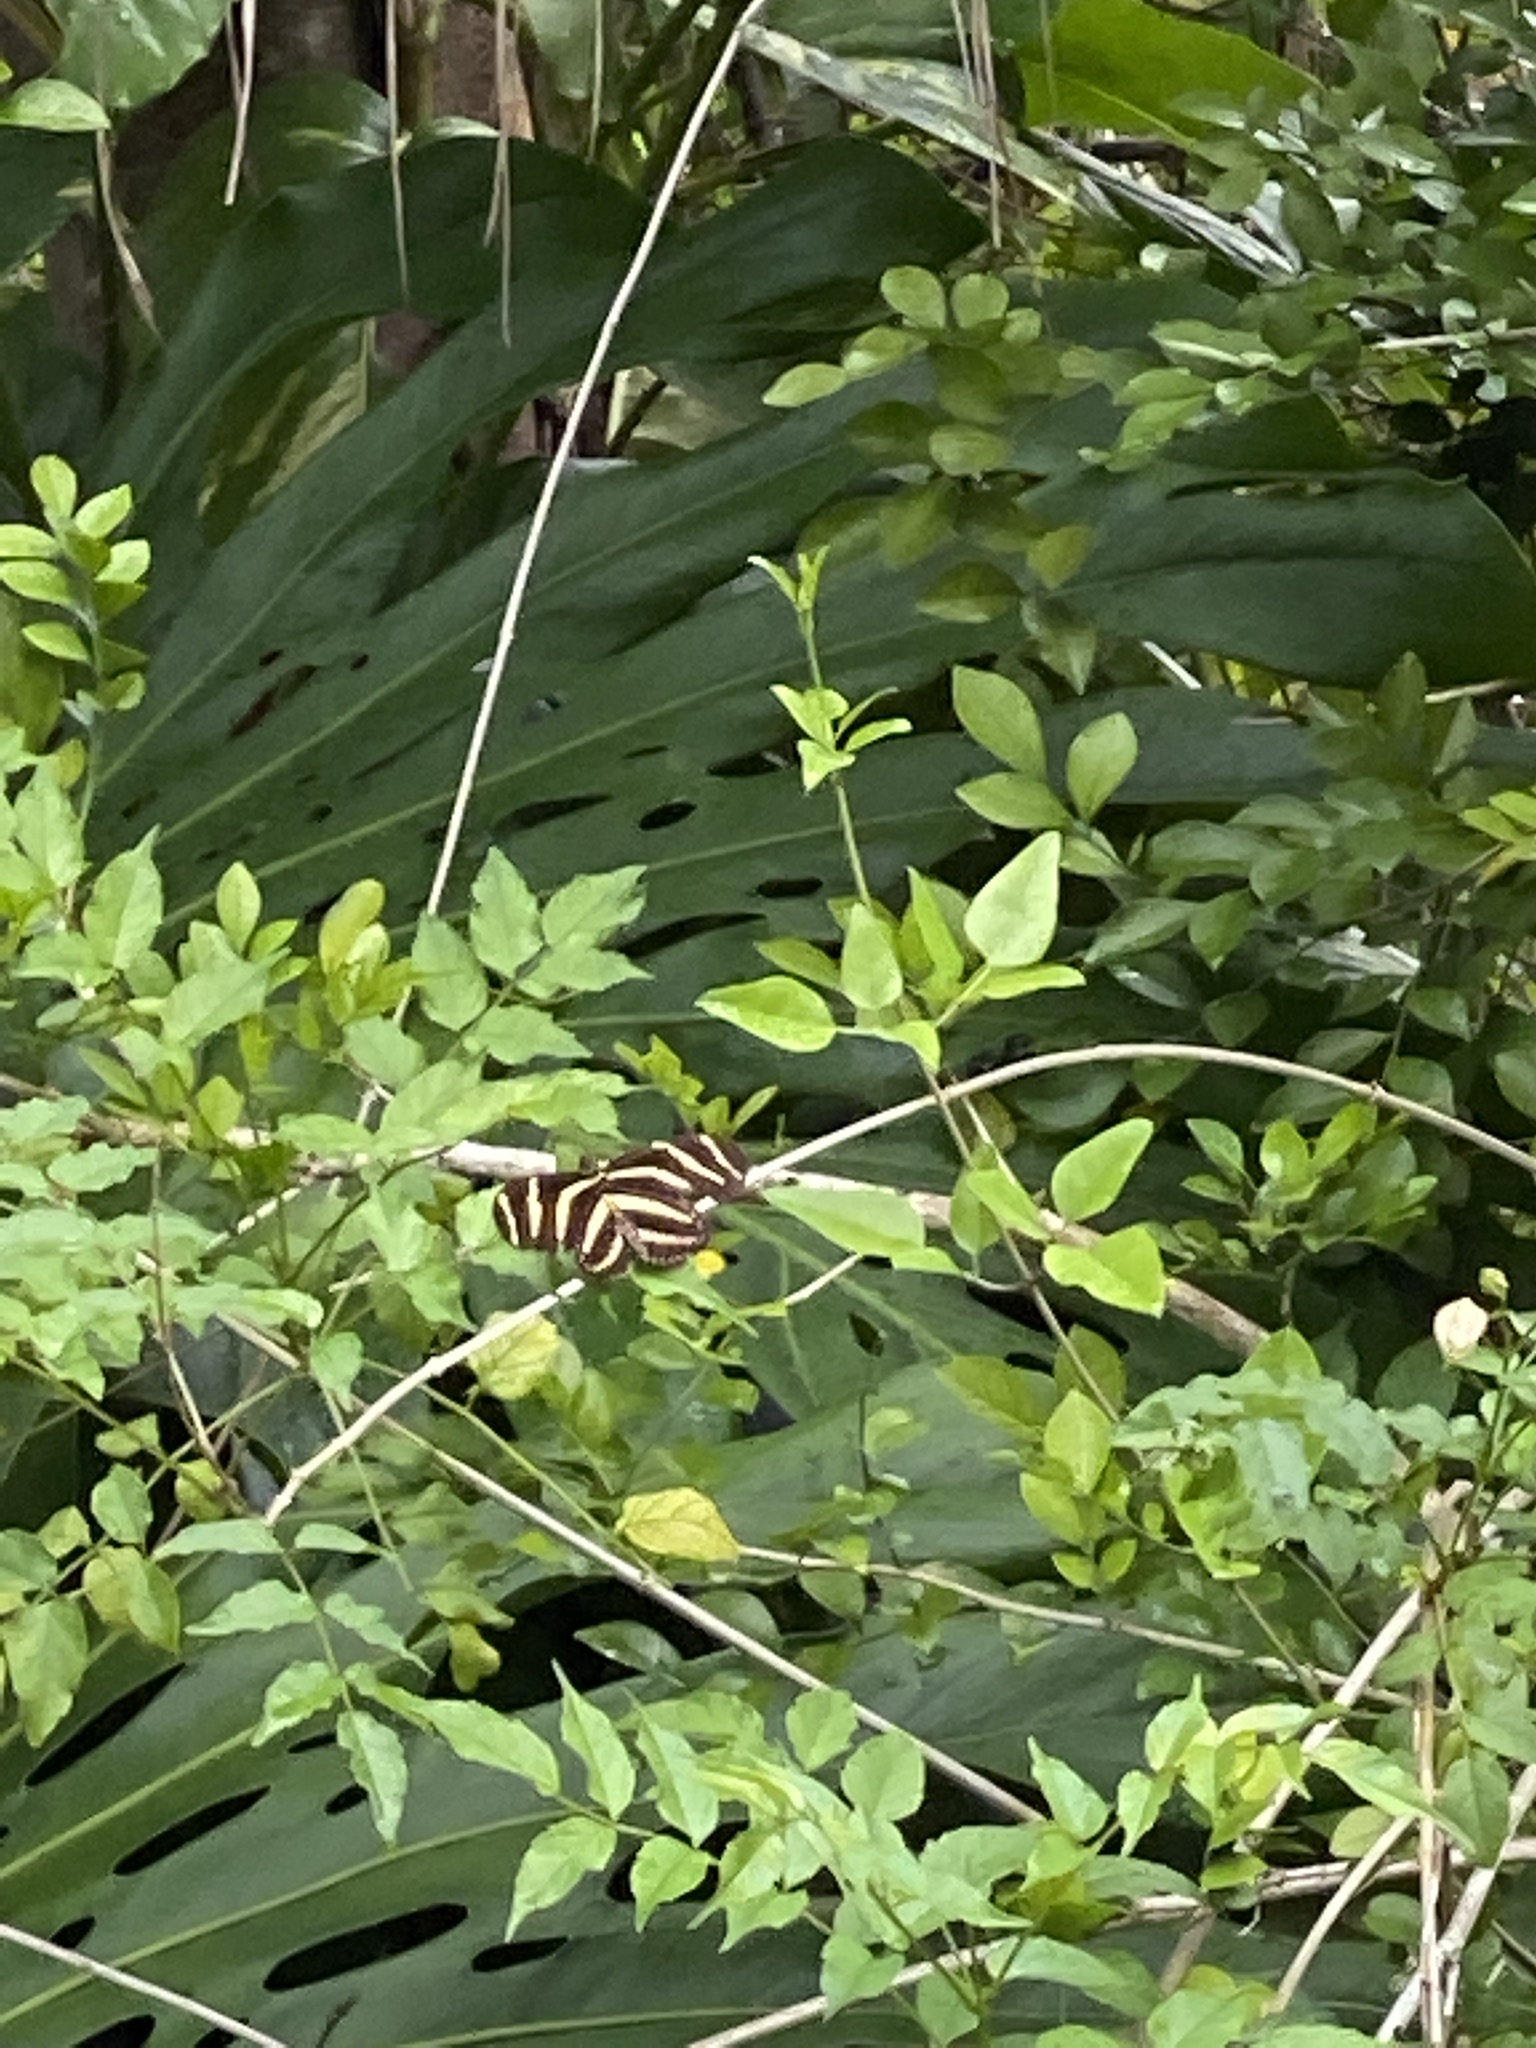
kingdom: Animalia
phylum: Arthropoda
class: Insecta
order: Lepidoptera
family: Nymphalidae
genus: Heliconius
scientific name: Heliconius charithonia
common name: Zebra long wing
